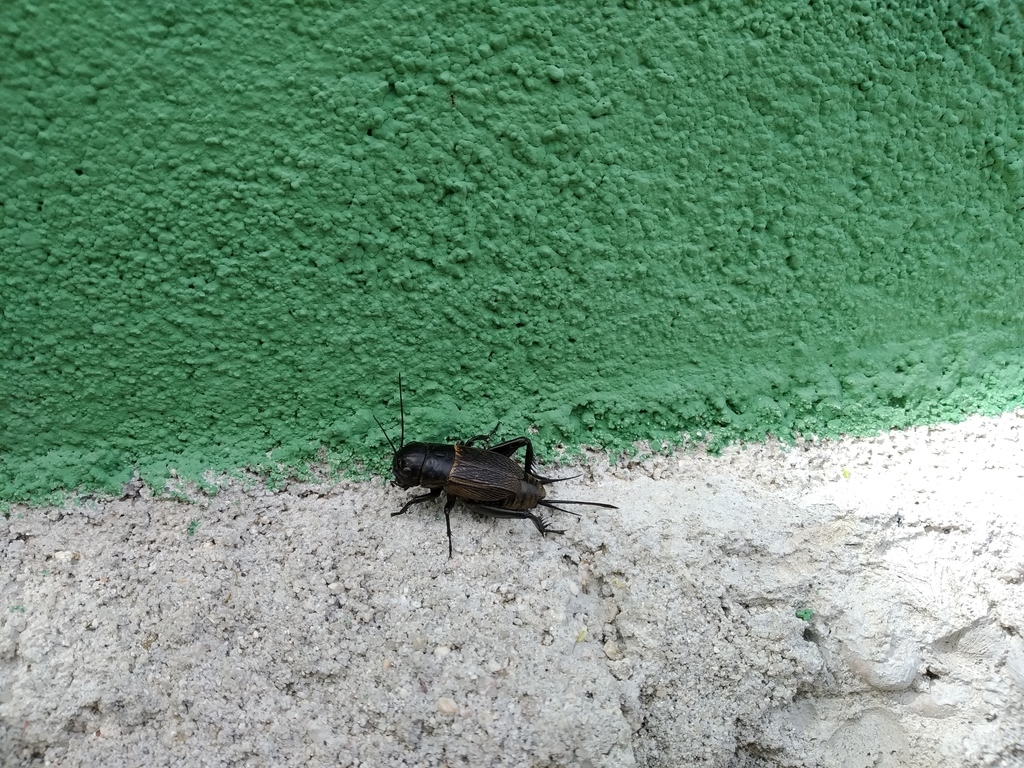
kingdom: Animalia
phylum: Arthropoda
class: Insecta
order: Orthoptera
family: Gryllidae
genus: Gryllus
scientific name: Gryllus campestris
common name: Field cricket
